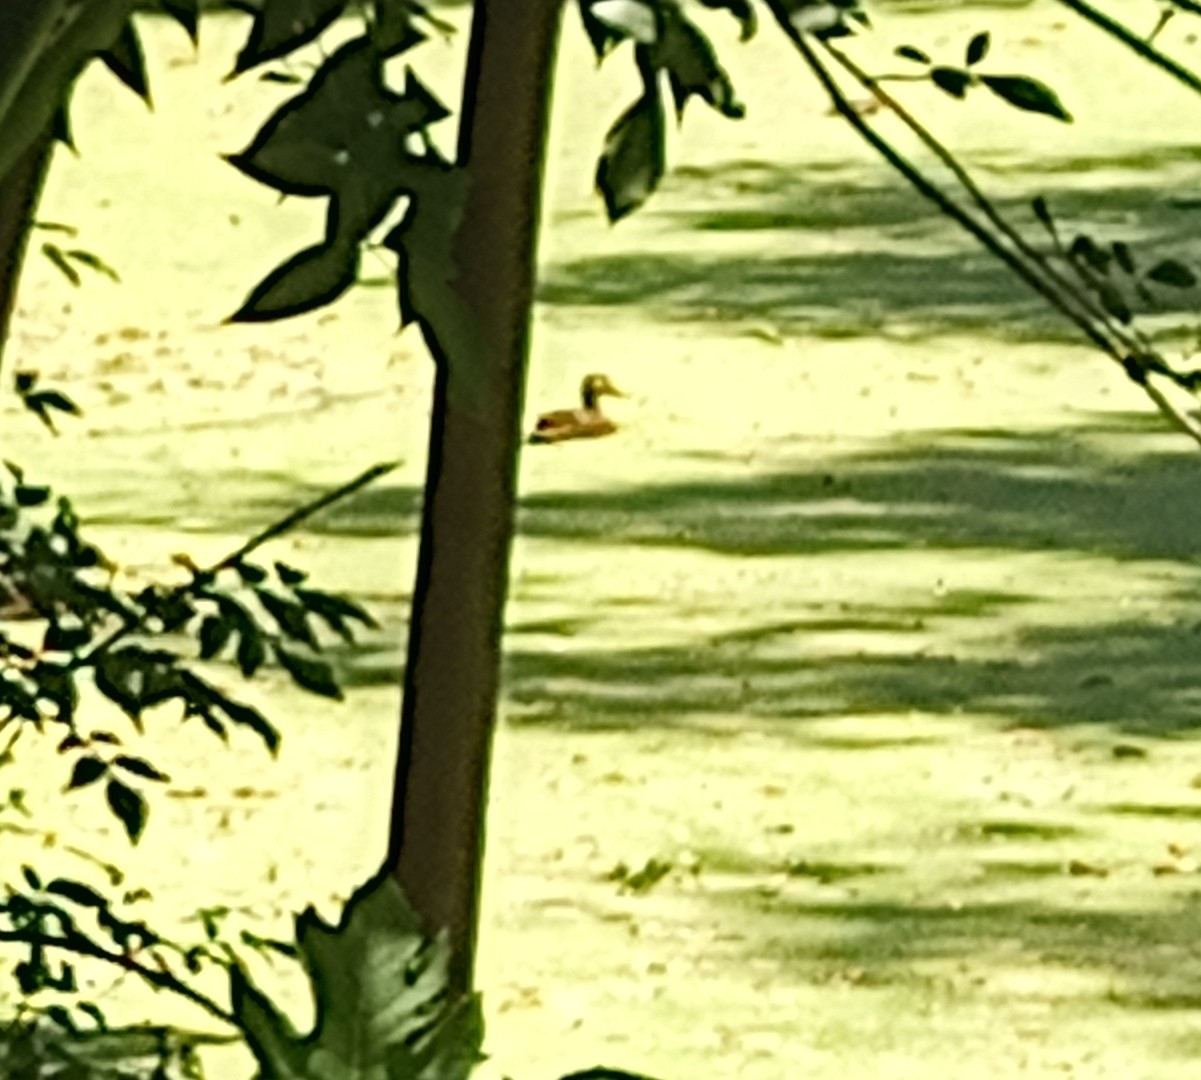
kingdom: Animalia
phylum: Chordata
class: Aves
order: Anseriformes
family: Anatidae
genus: Anas
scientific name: Anas diazi
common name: Mexican duck
